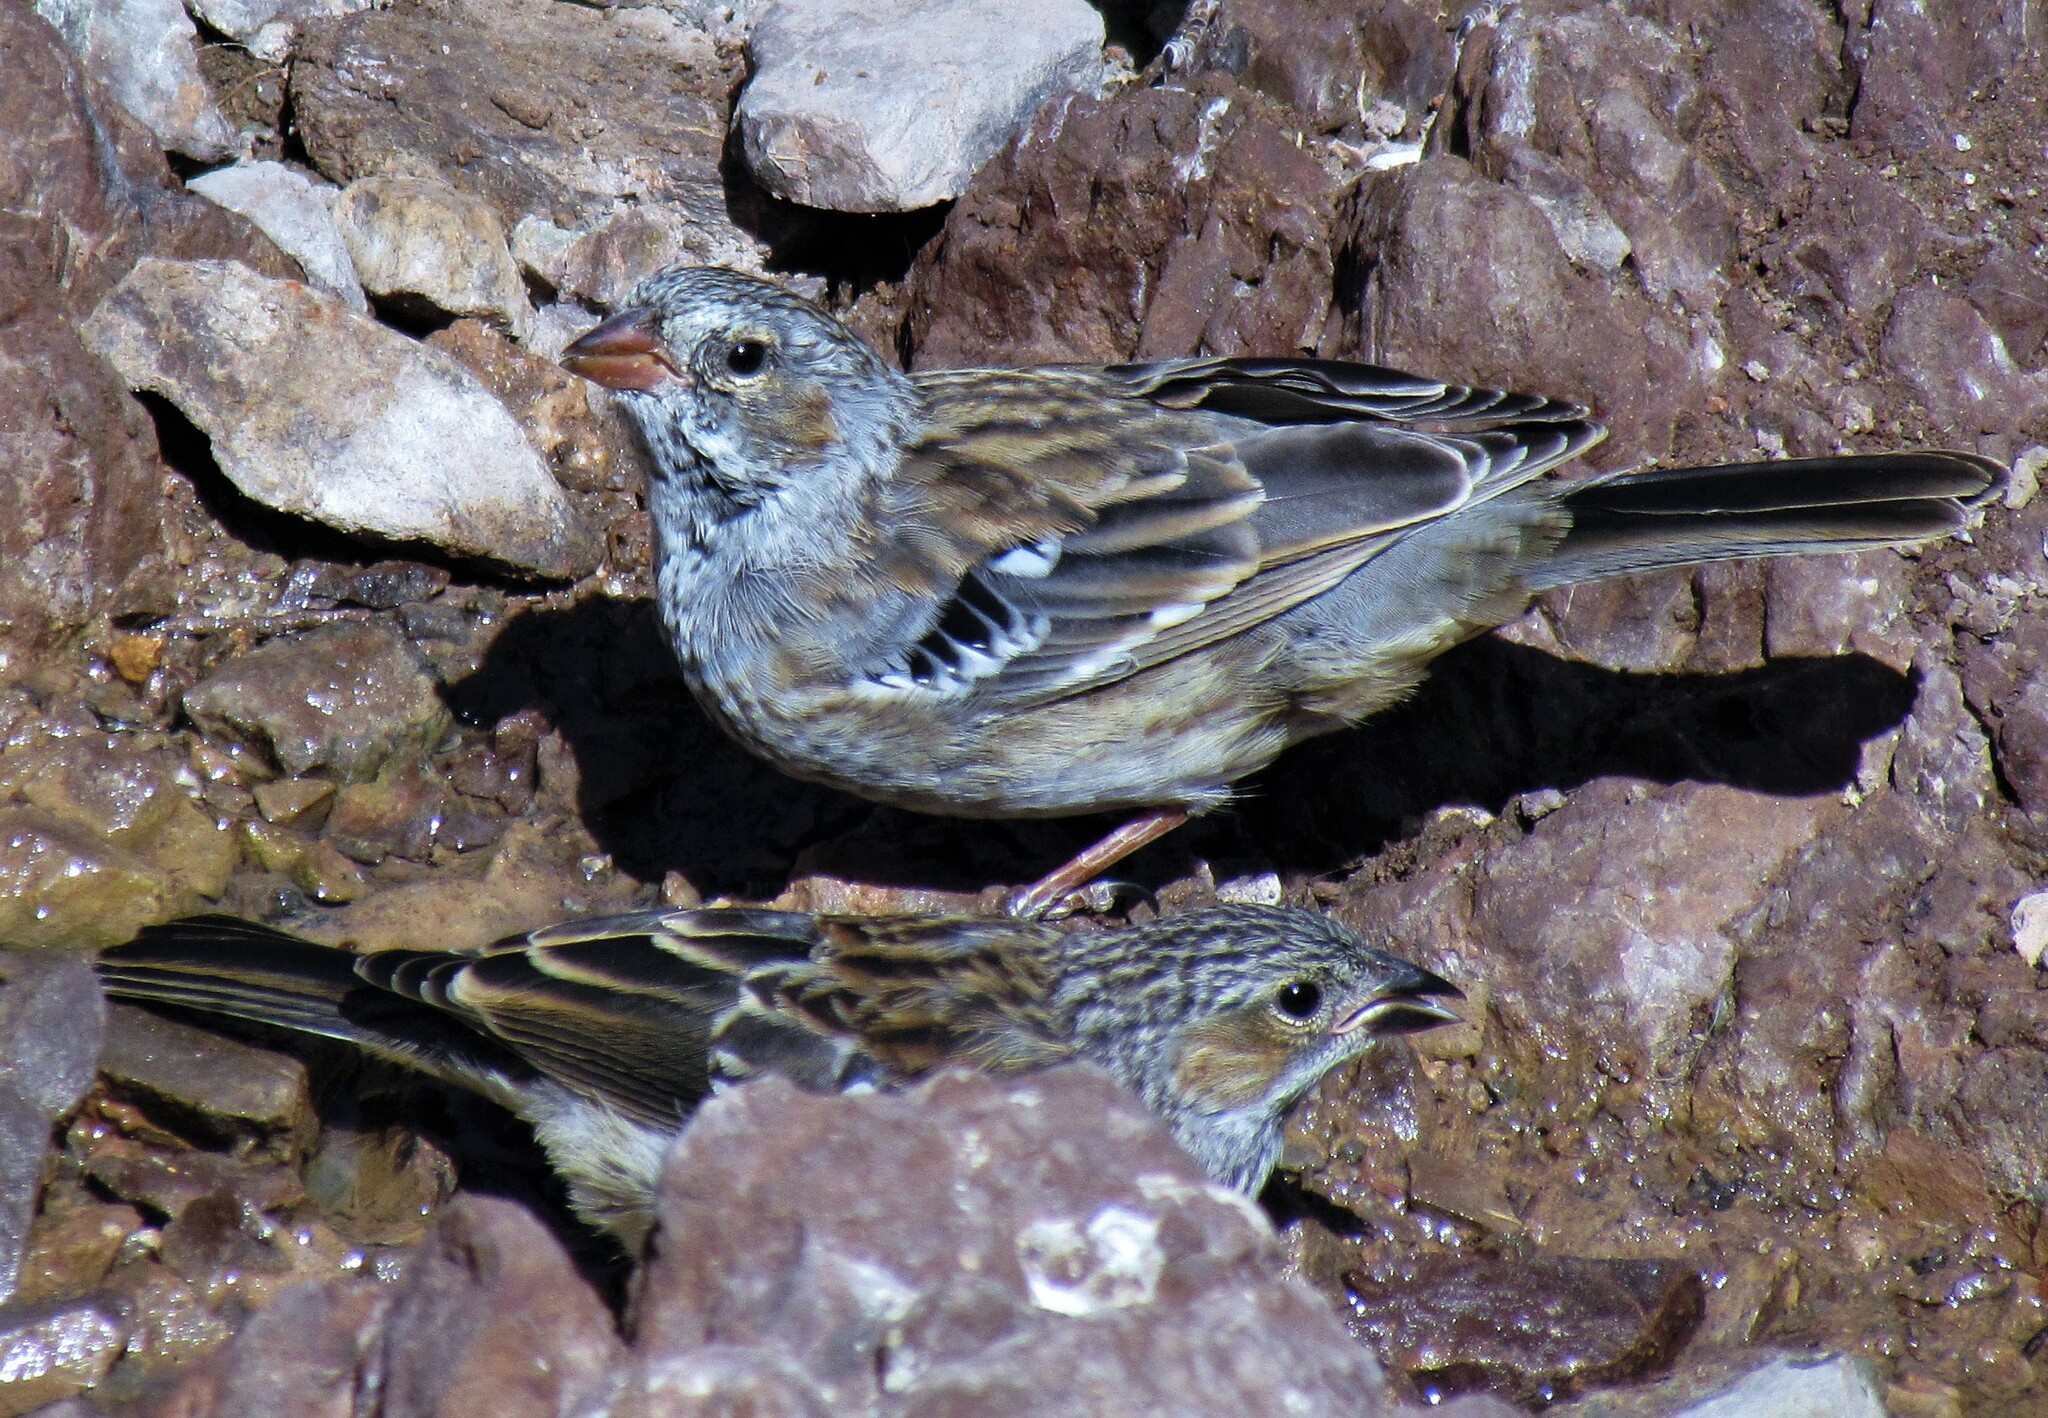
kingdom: Animalia
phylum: Chordata
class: Aves
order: Passeriformes
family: Thraupidae
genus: Rhopospina
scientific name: Rhopospina fruticeti
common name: Mourning sierra finch
